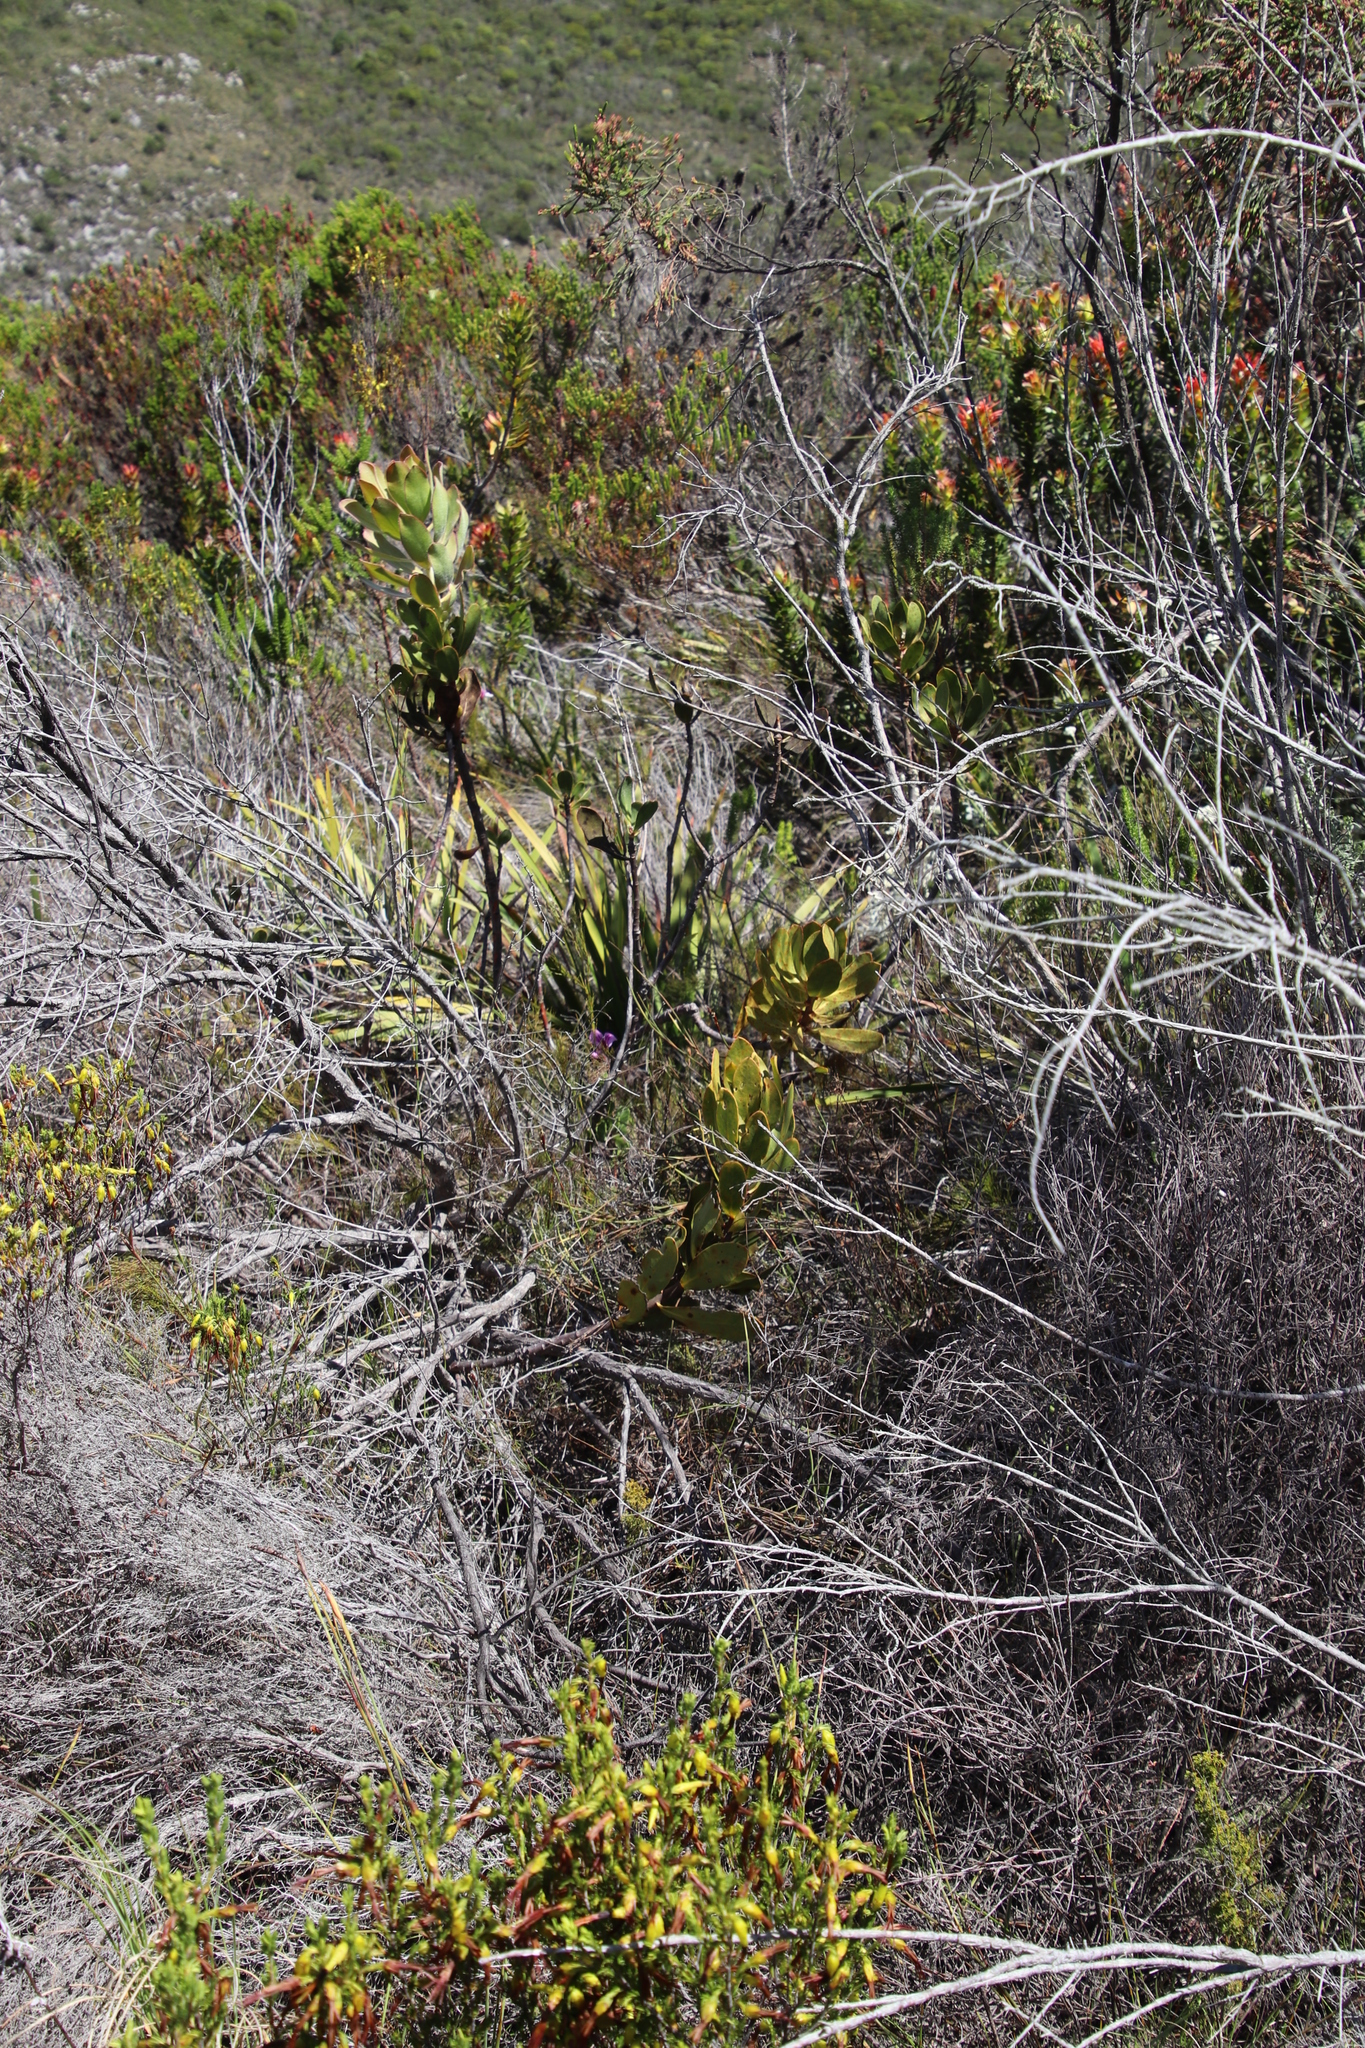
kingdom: Plantae
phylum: Tracheophyta
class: Magnoliopsida
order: Proteales
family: Proteaceae
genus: Protea
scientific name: Protea speciosa
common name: Brown-beard sugarbush
